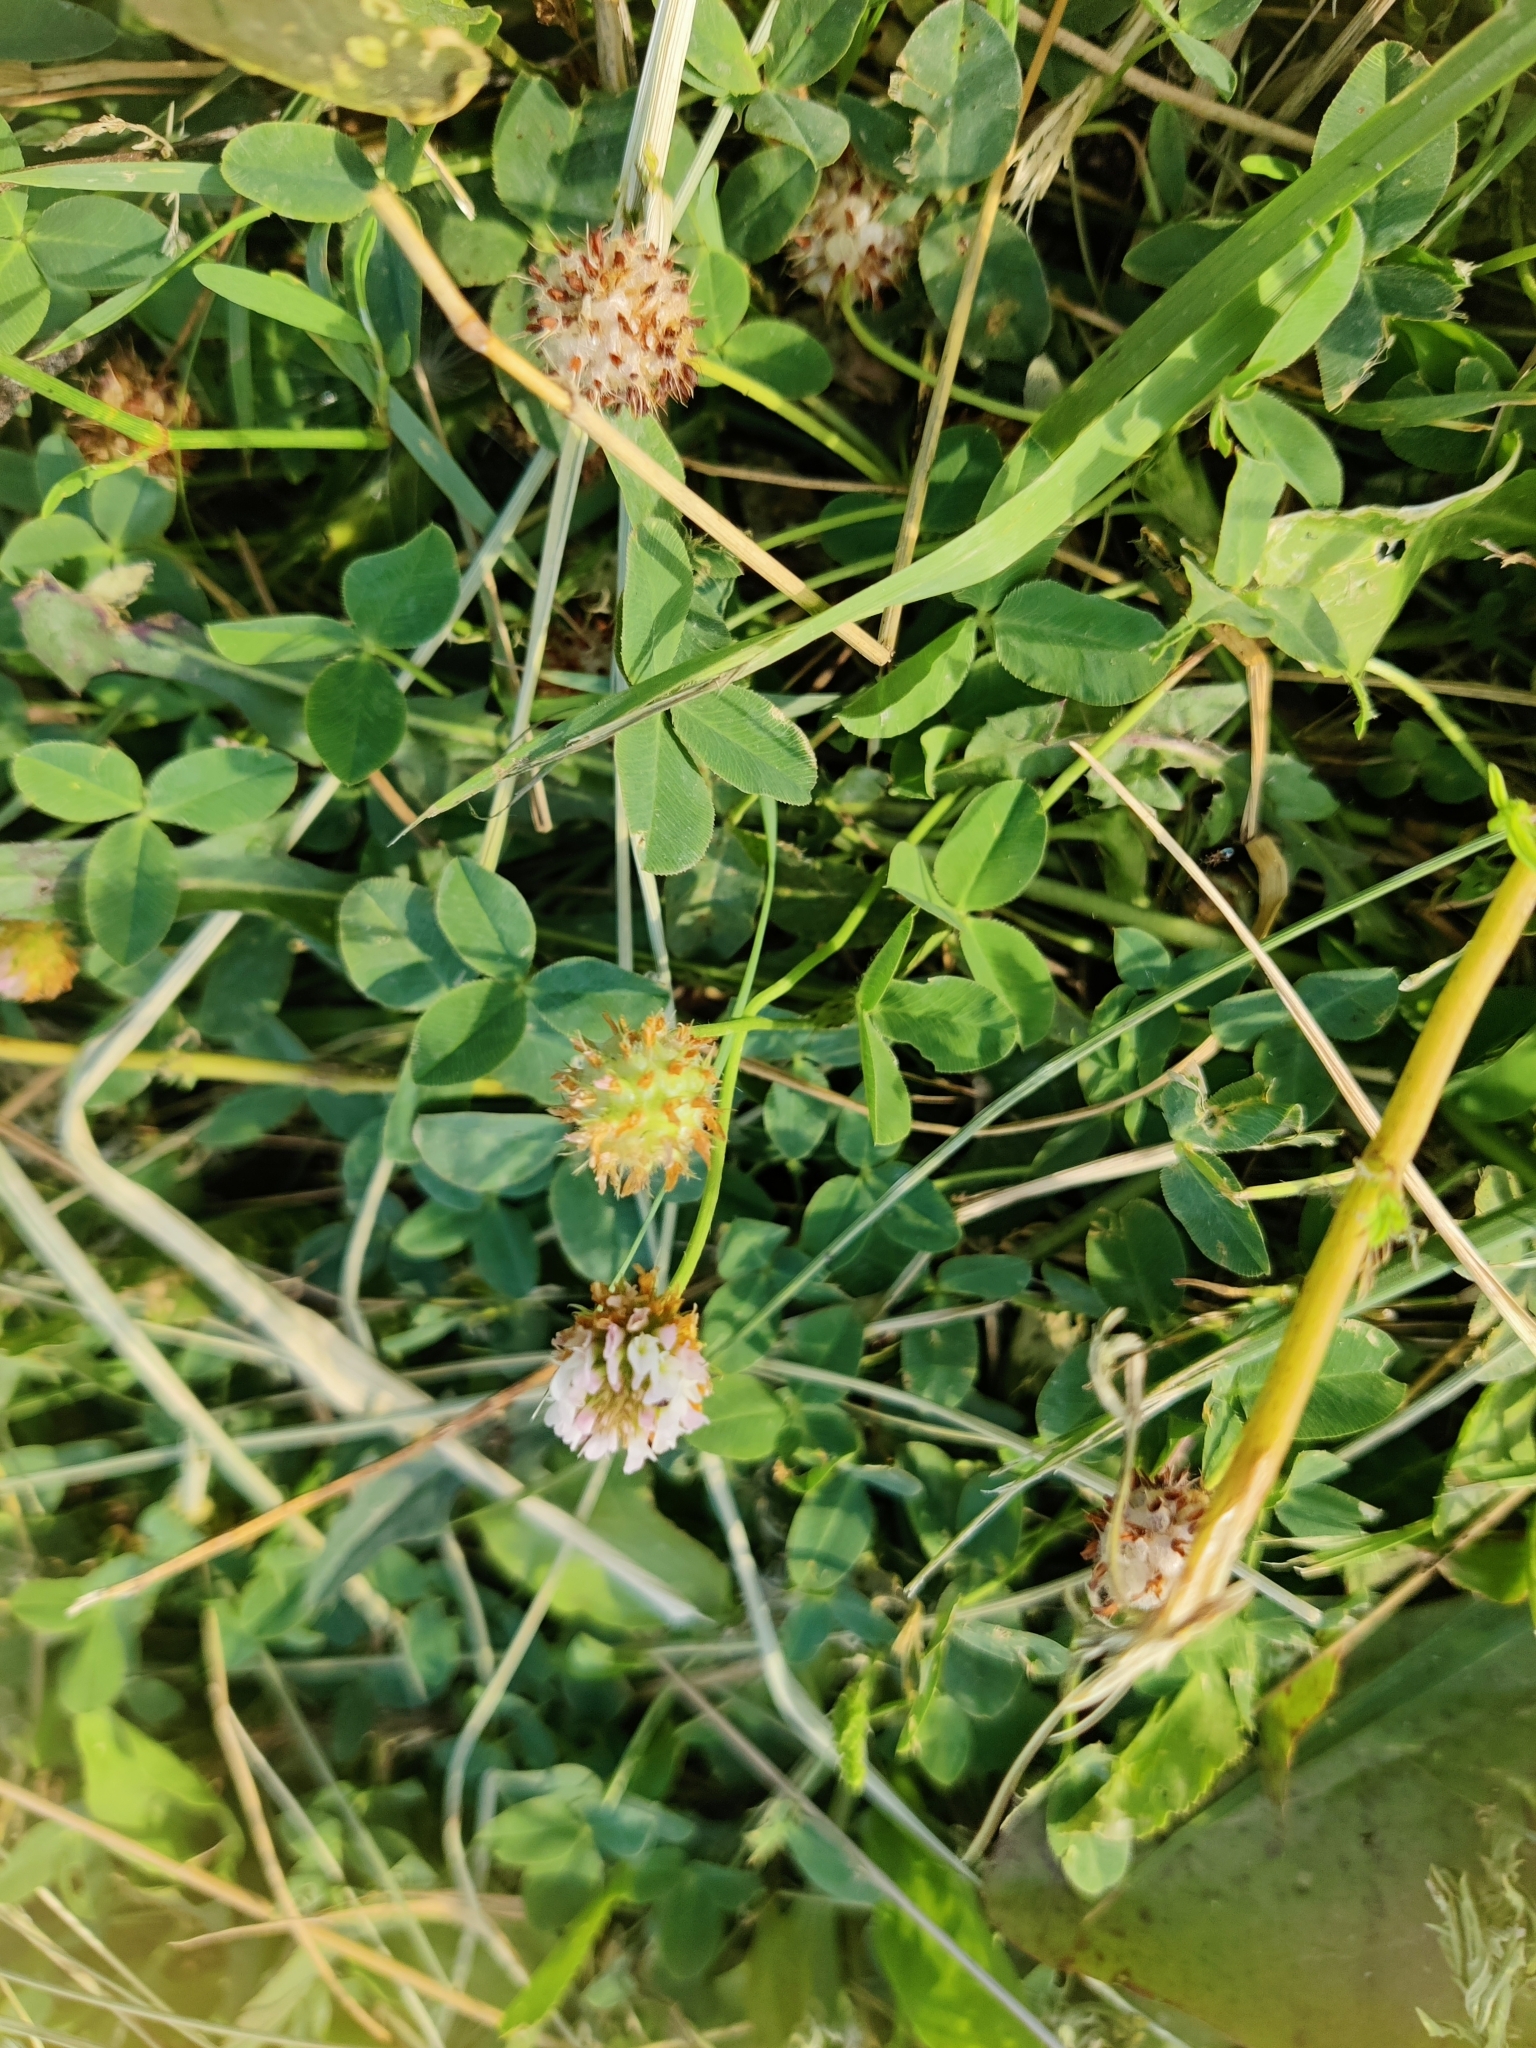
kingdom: Plantae
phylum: Tracheophyta
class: Magnoliopsida
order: Fabales
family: Fabaceae
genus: Trifolium
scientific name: Trifolium fragiferum
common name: Strawberry clover
